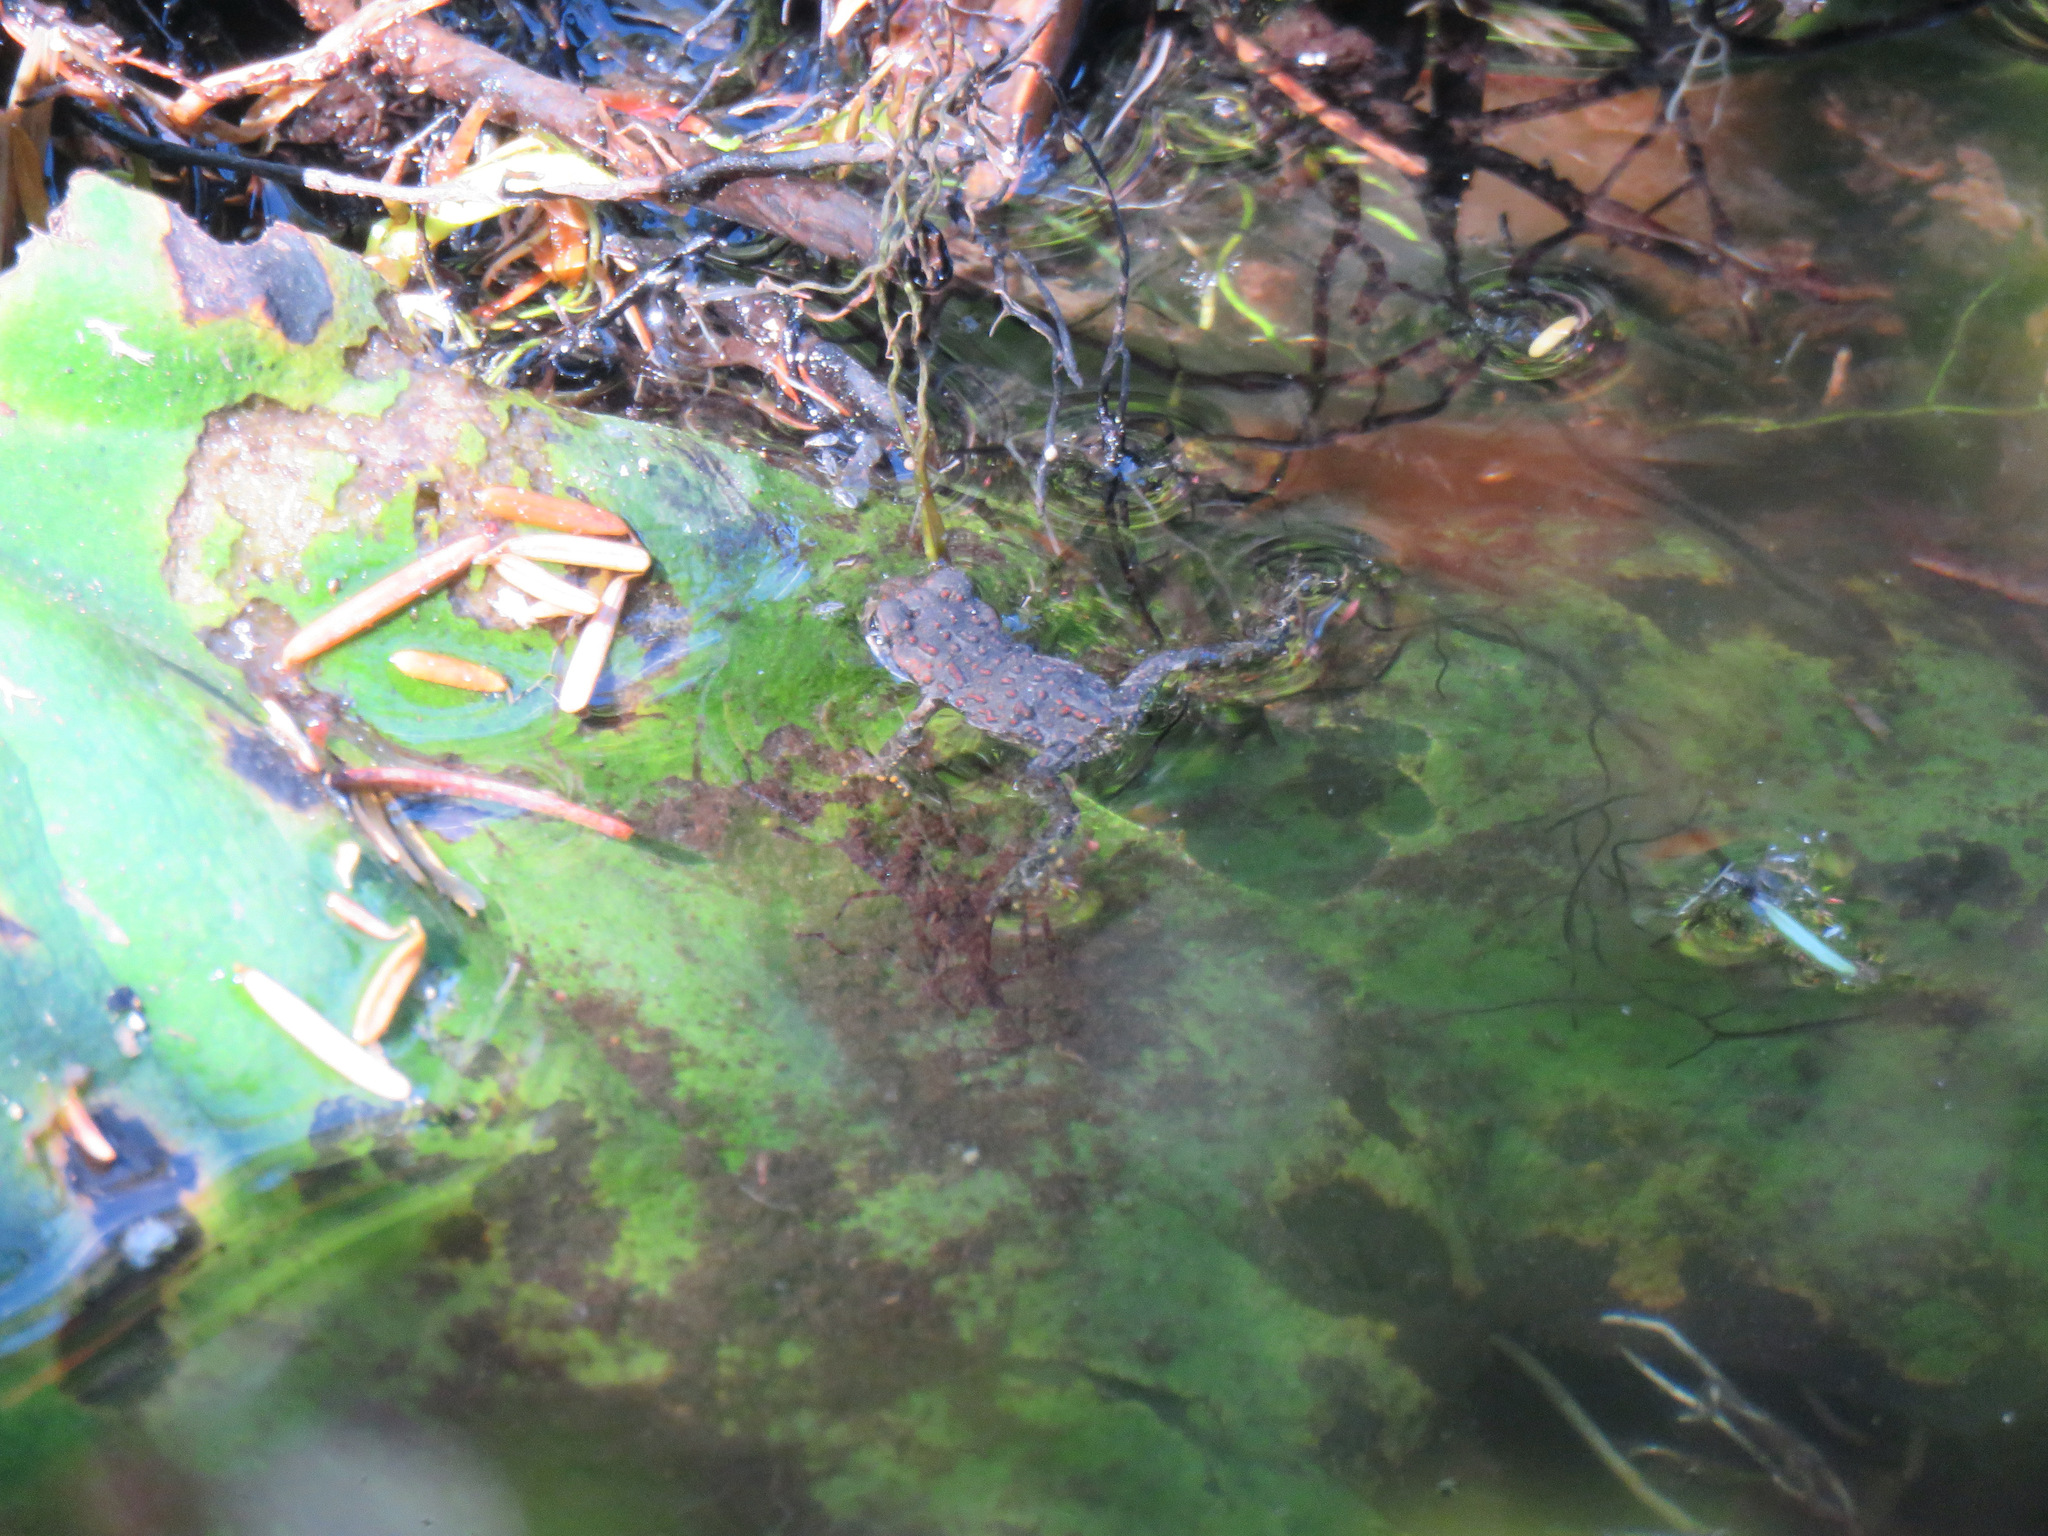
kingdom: Animalia
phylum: Chordata
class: Amphibia
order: Anura
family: Bufonidae
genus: Anaxyrus
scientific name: Anaxyrus boreas
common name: Western toad
